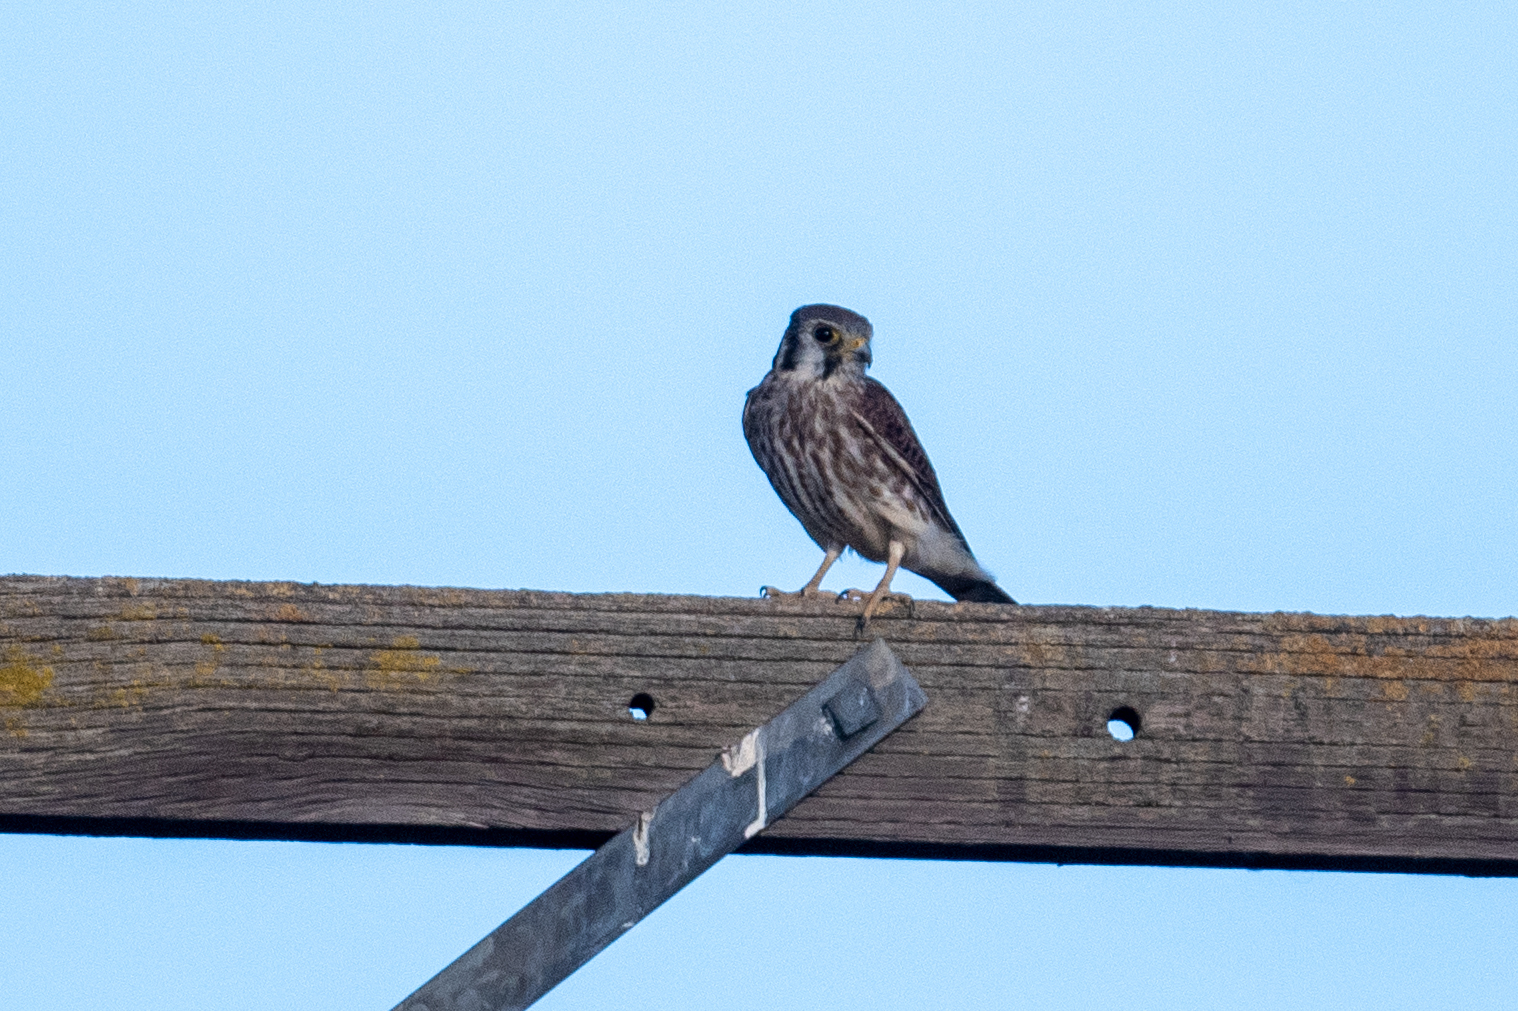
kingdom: Animalia
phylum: Chordata
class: Aves
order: Falconiformes
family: Falconidae
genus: Falco
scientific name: Falco sparverius
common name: American kestrel
